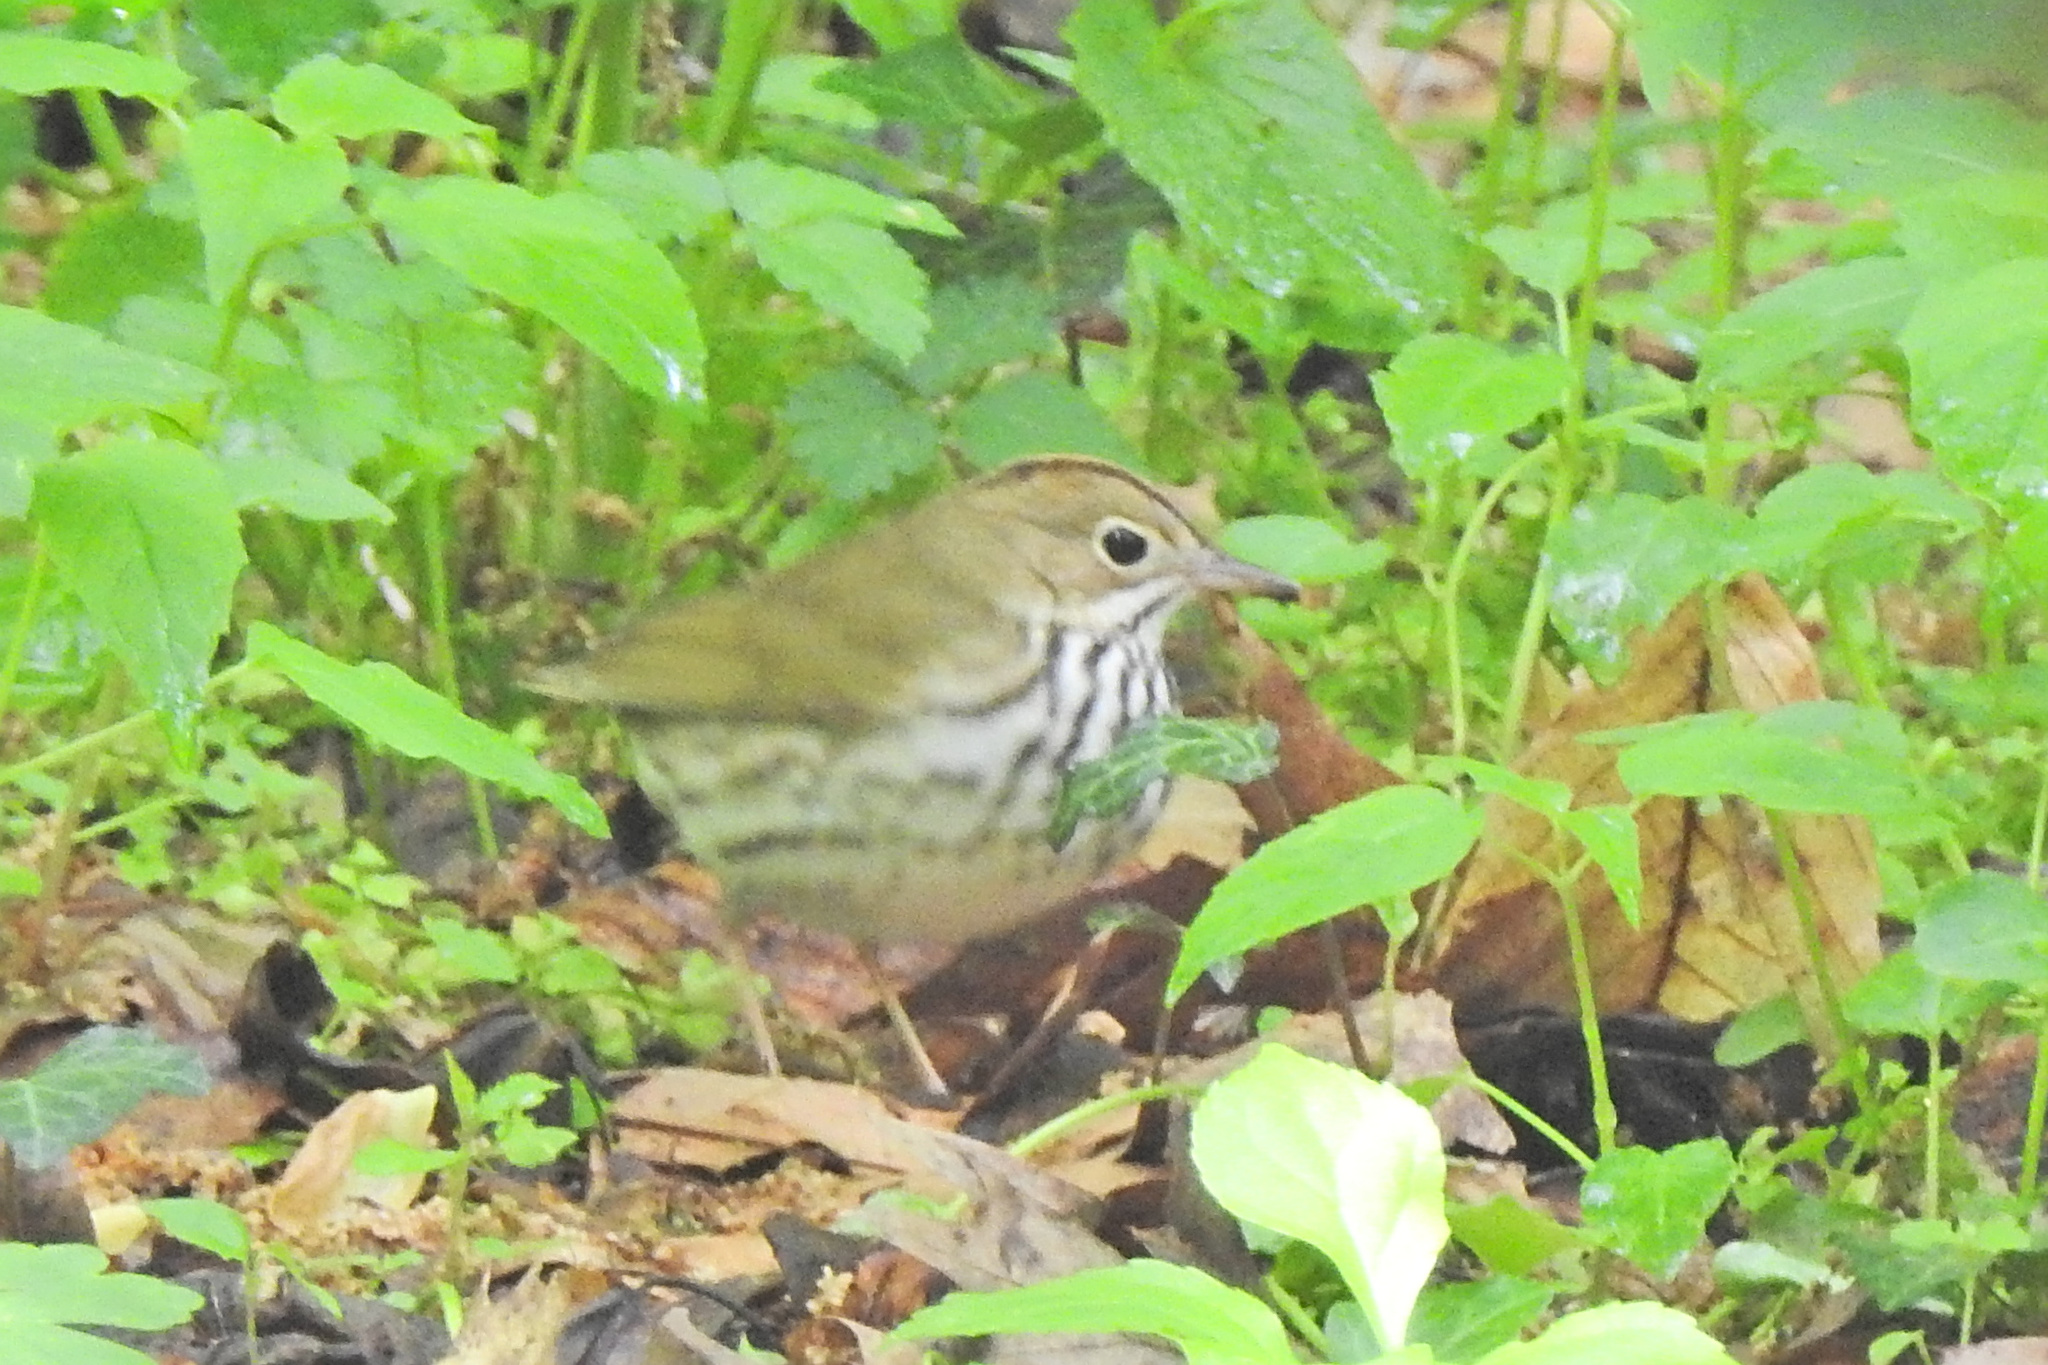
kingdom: Animalia
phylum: Chordata
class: Aves
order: Passeriformes
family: Parulidae
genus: Seiurus
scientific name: Seiurus aurocapilla
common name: Ovenbird
